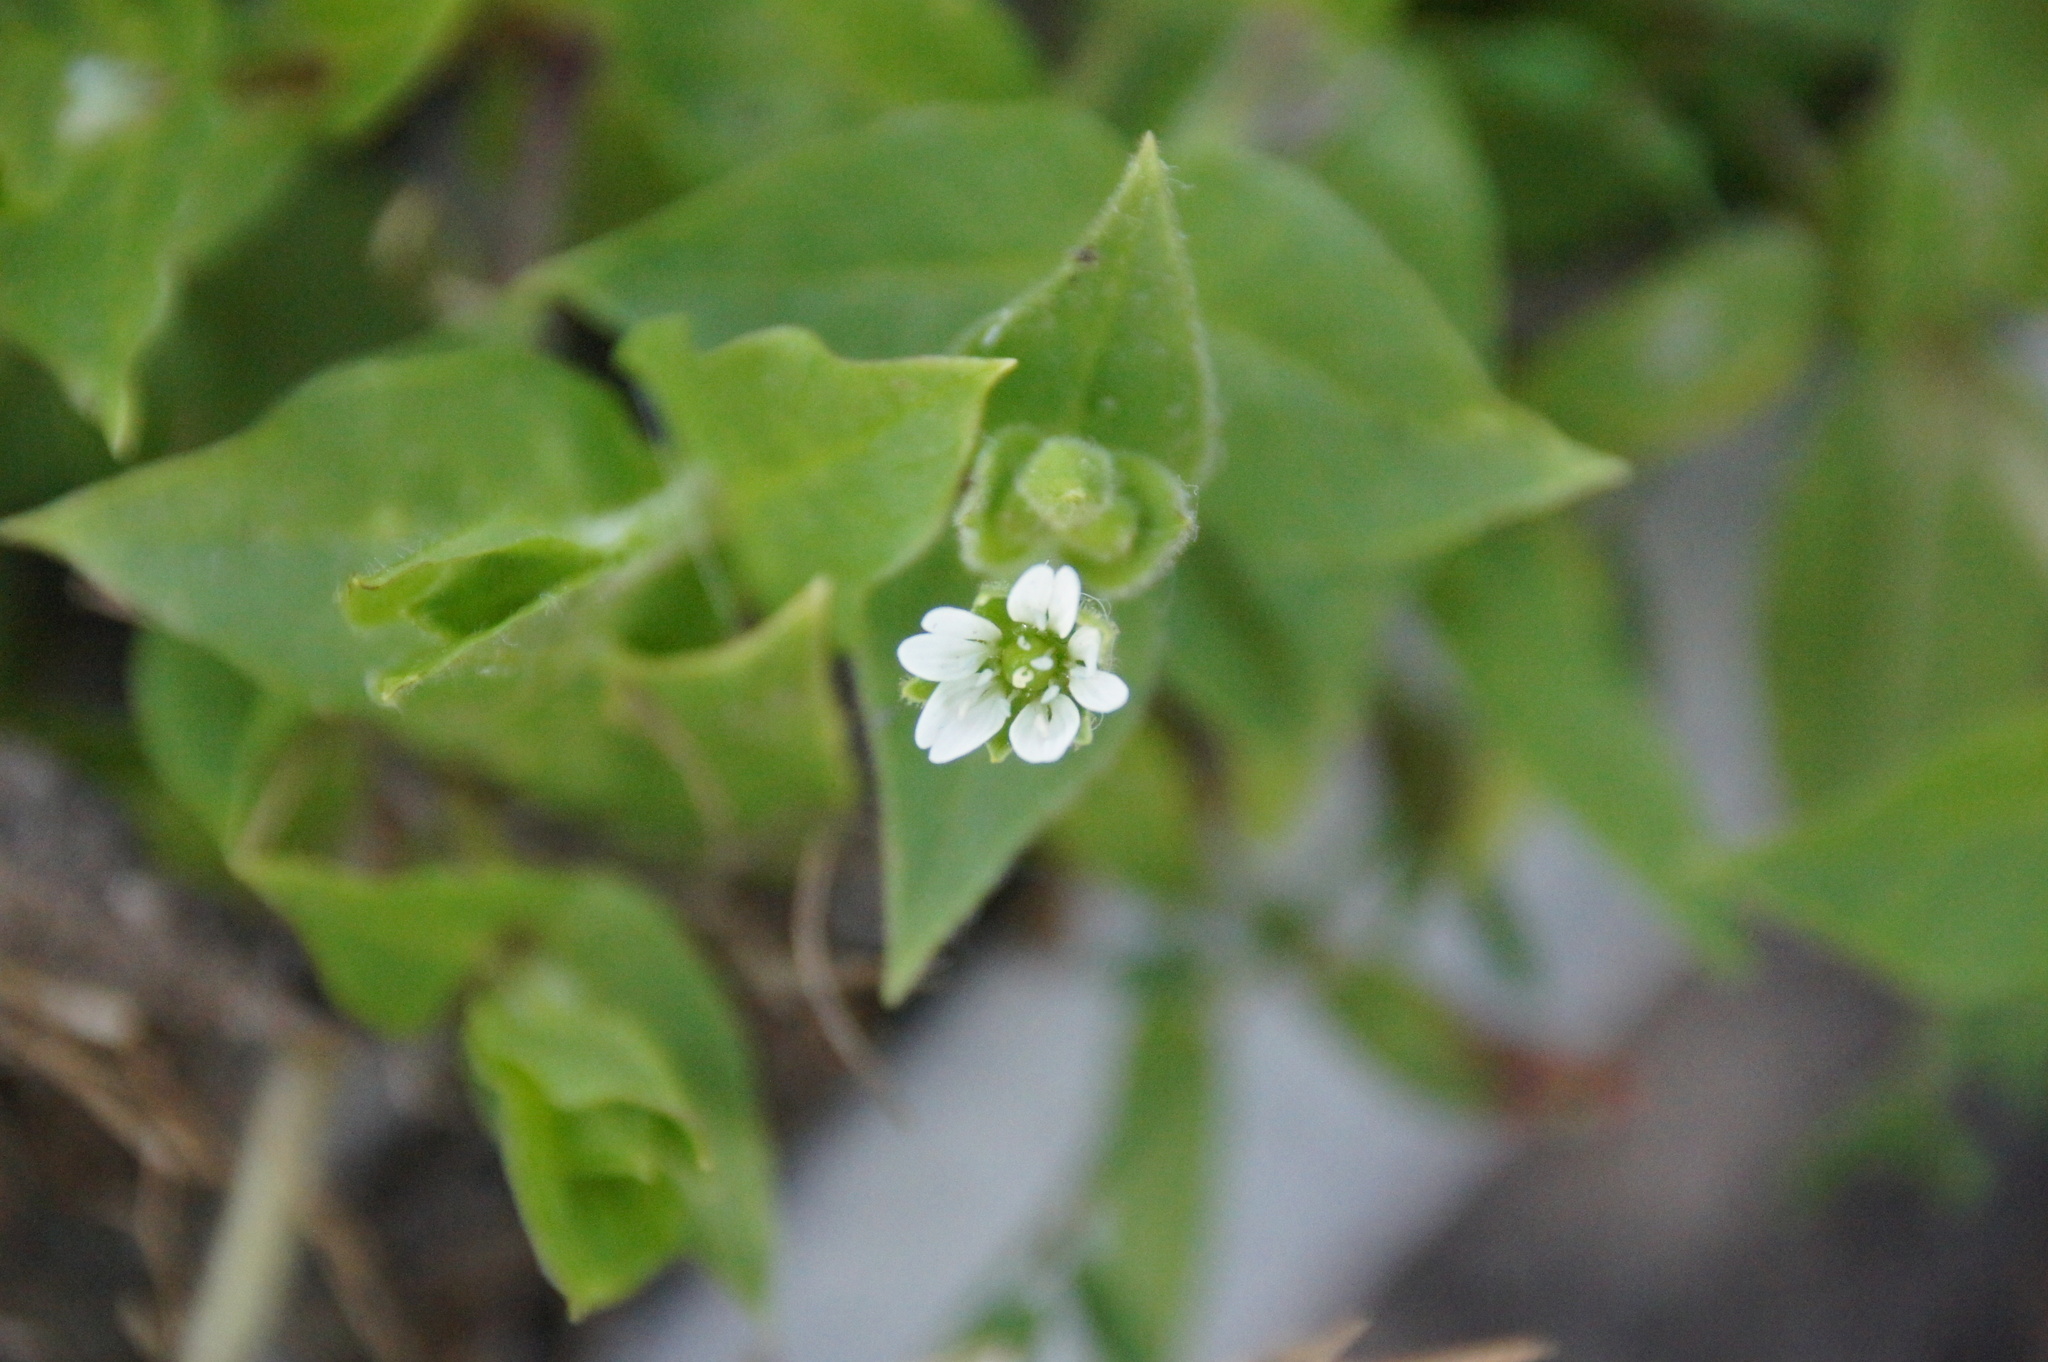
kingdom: Plantae
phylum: Tracheophyta
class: Magnoliopsida
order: Caryophyllales
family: Caryophyllaceae
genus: Stellaria
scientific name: Stellaria aquatica
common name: Water chickweed
